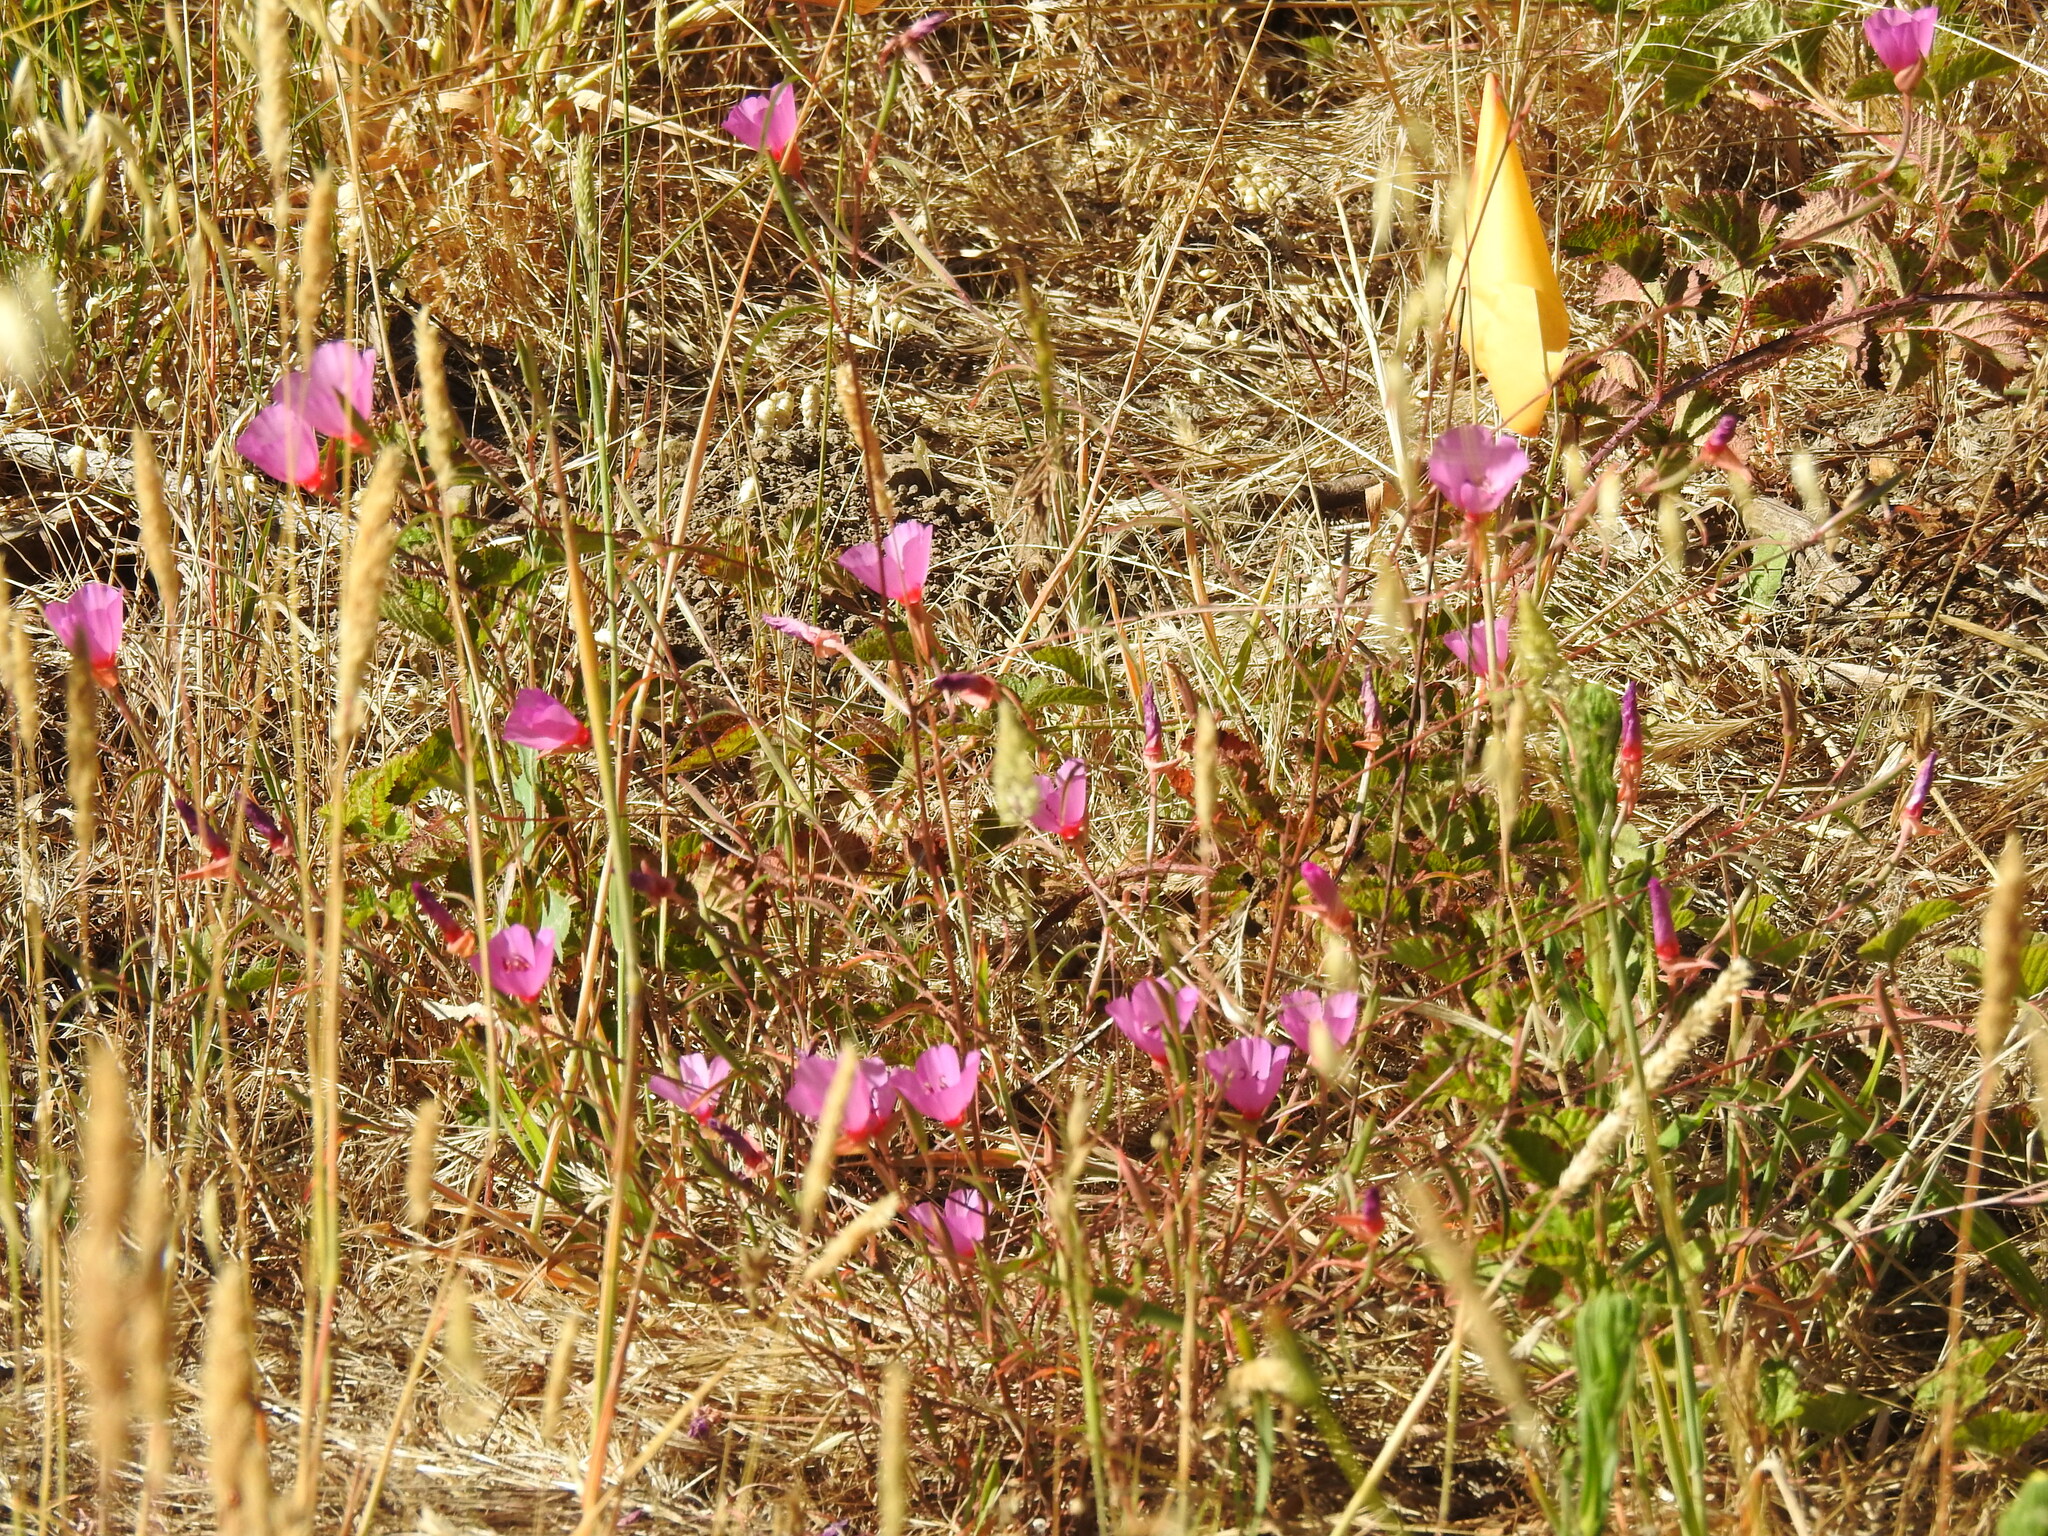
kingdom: Plantae
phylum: Tracheophyta
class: Magnoliopsida
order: Myrtales
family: Onagraceae
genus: Clarkia
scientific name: Clarkia rubicunda
